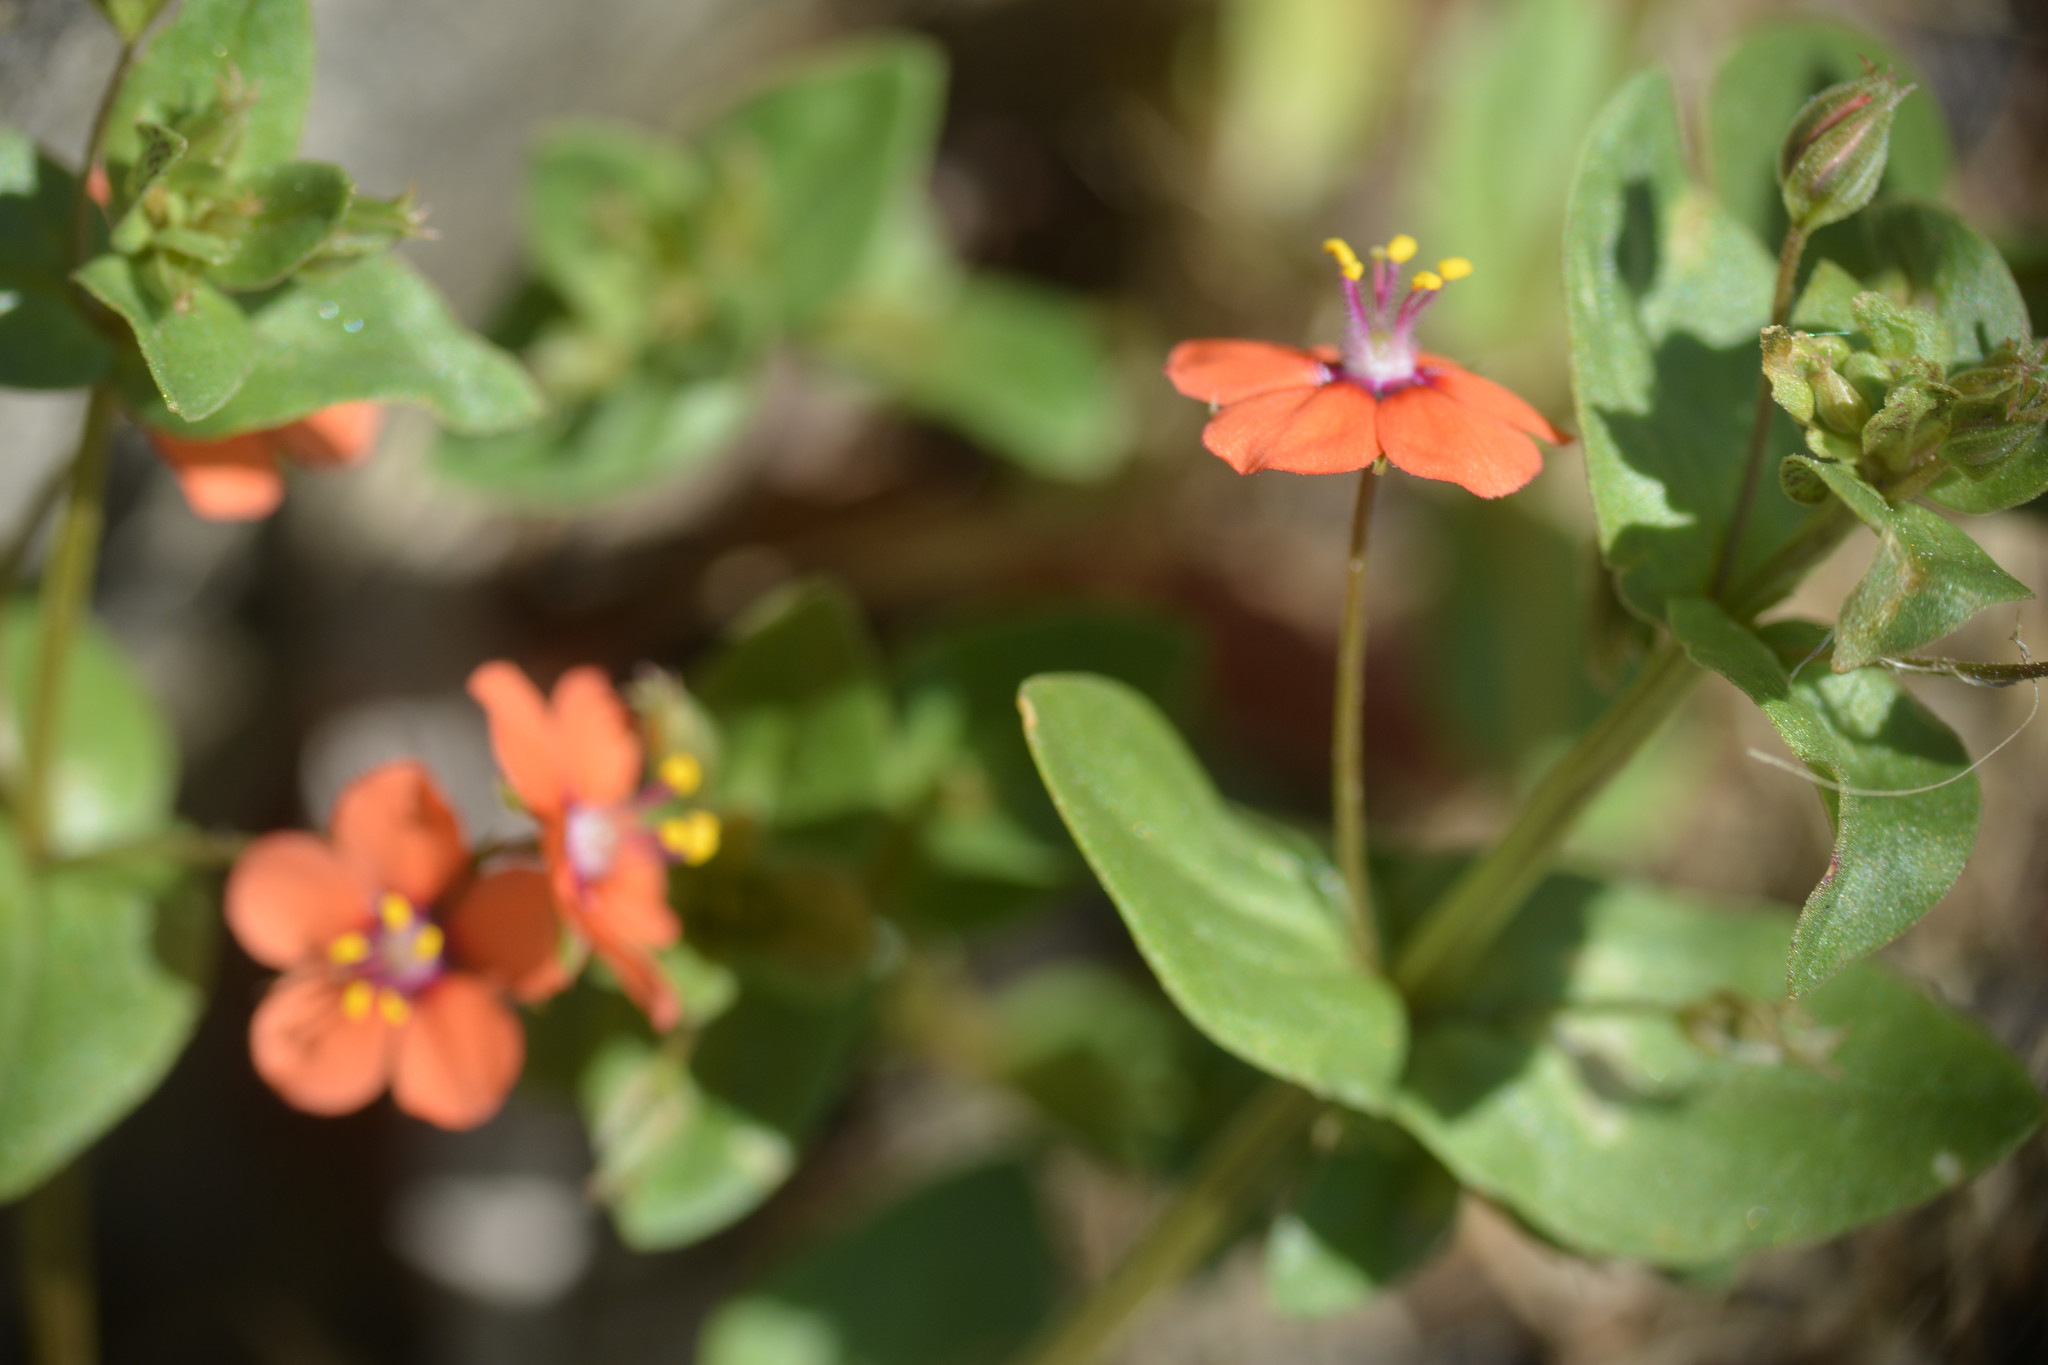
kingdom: Plantae
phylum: Tracheophyta
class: Magnoliopsida
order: Ericales
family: Primulaceae
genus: Lysimachia
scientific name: Lysimachia arvensis
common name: Scarlet pimpernel
